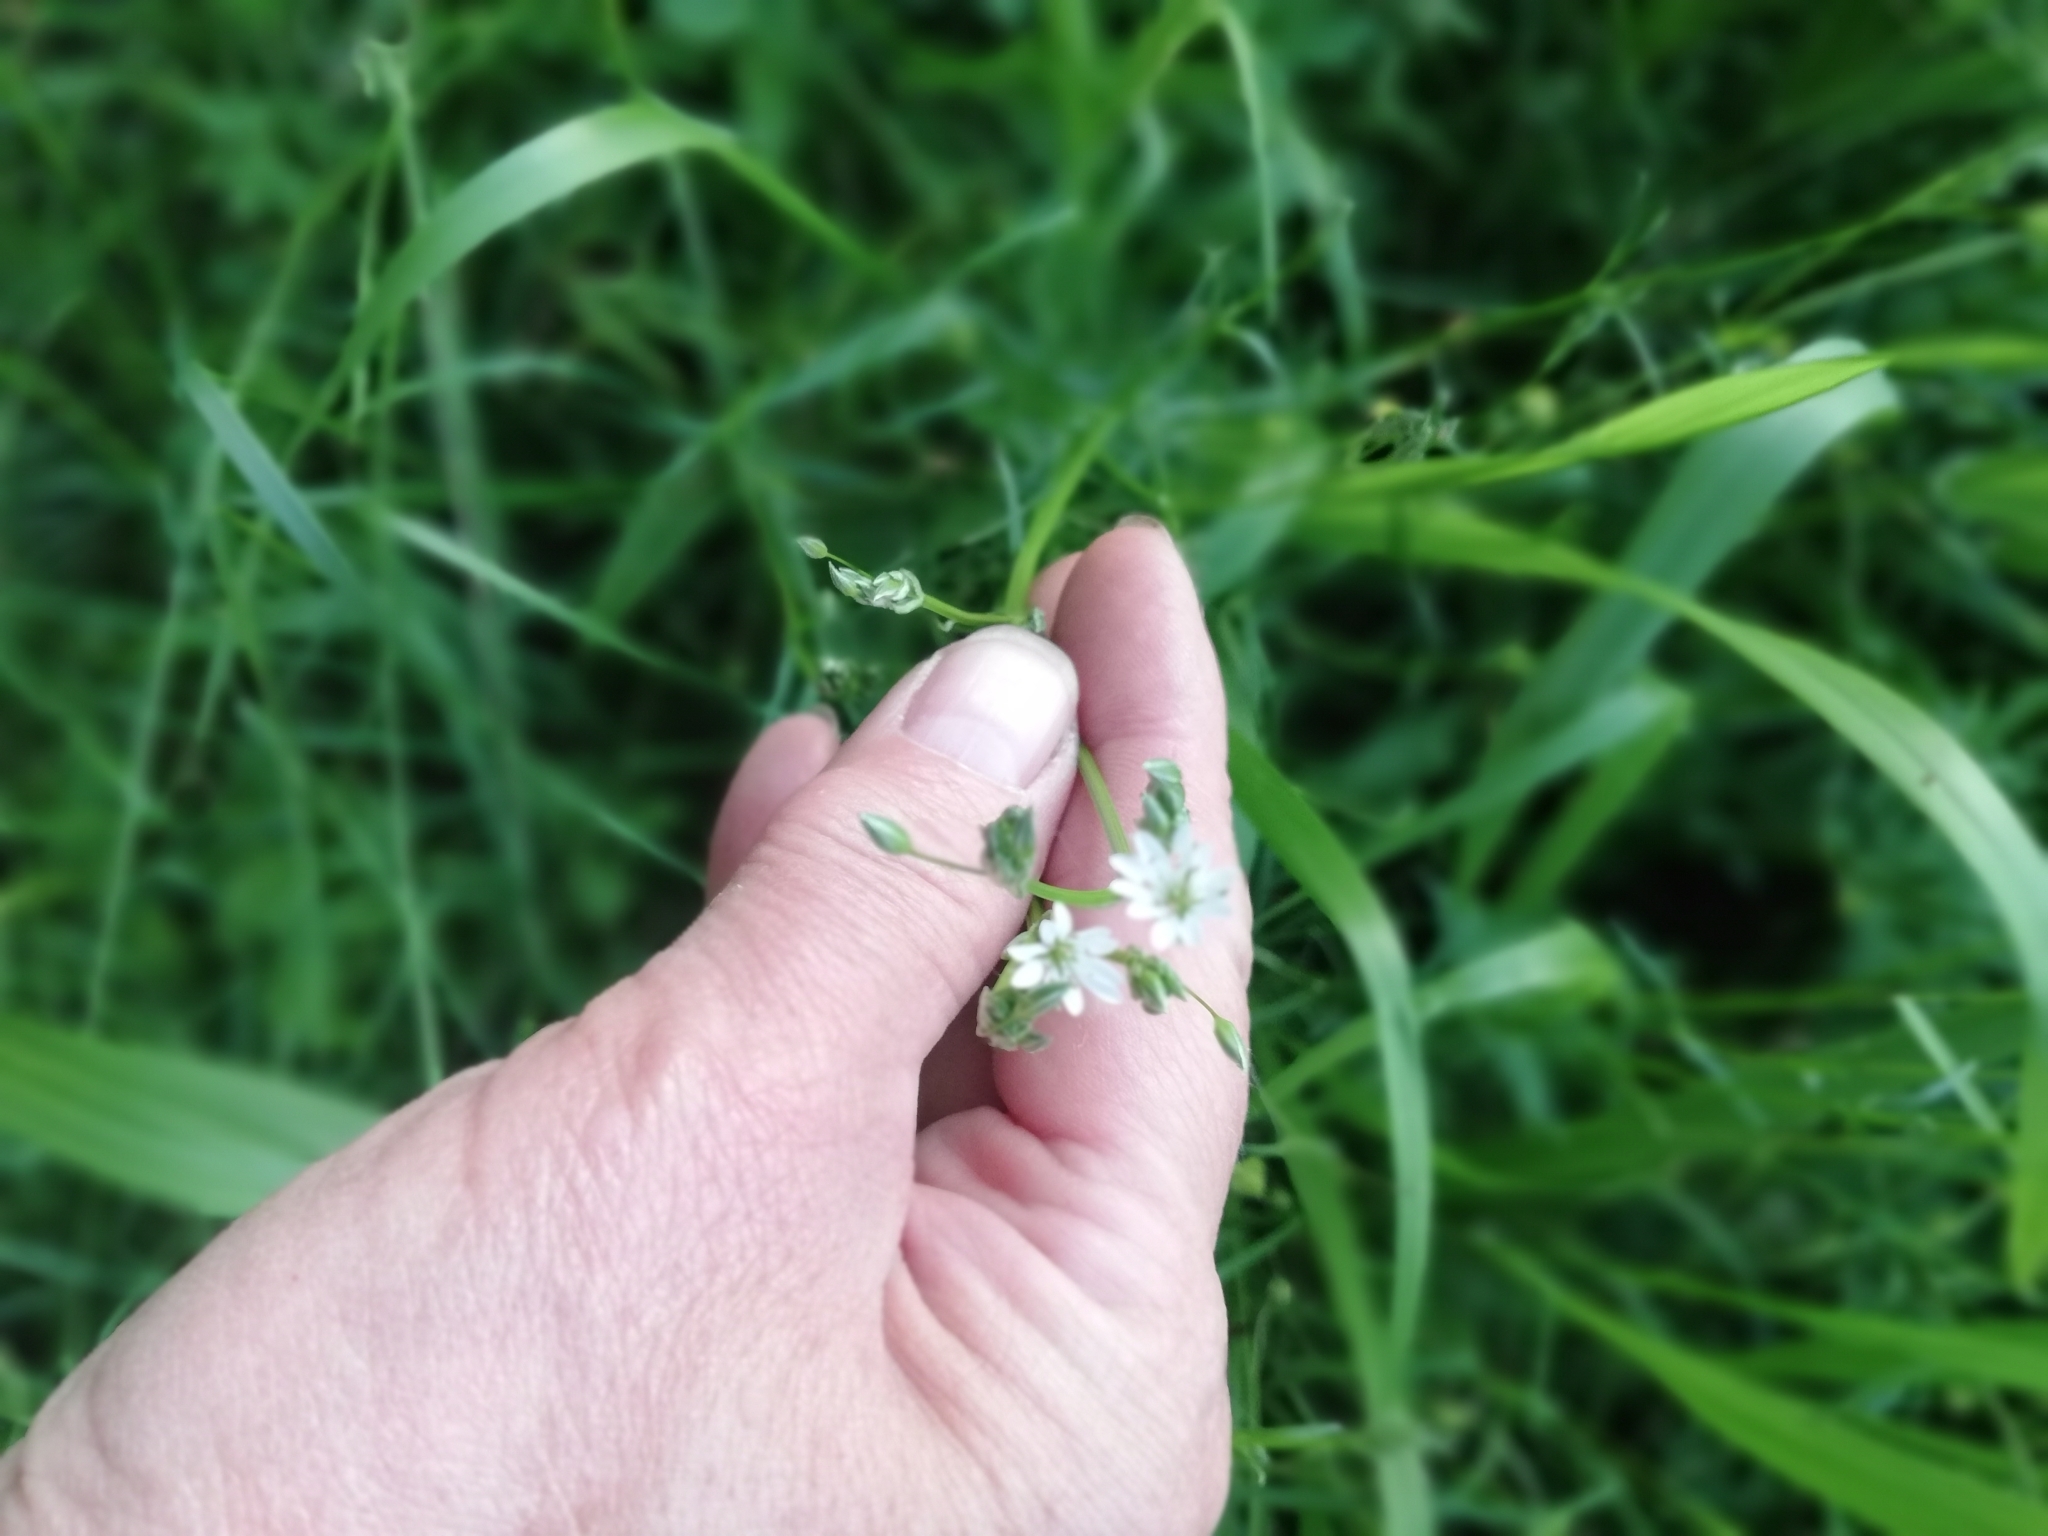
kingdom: Plantae
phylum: Tracheophyta
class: Magnoliopsida
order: Caryophyllales
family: Caryophyllaceae
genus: Stellaria
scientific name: Stellaria graminea
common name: Grass-like starwort
